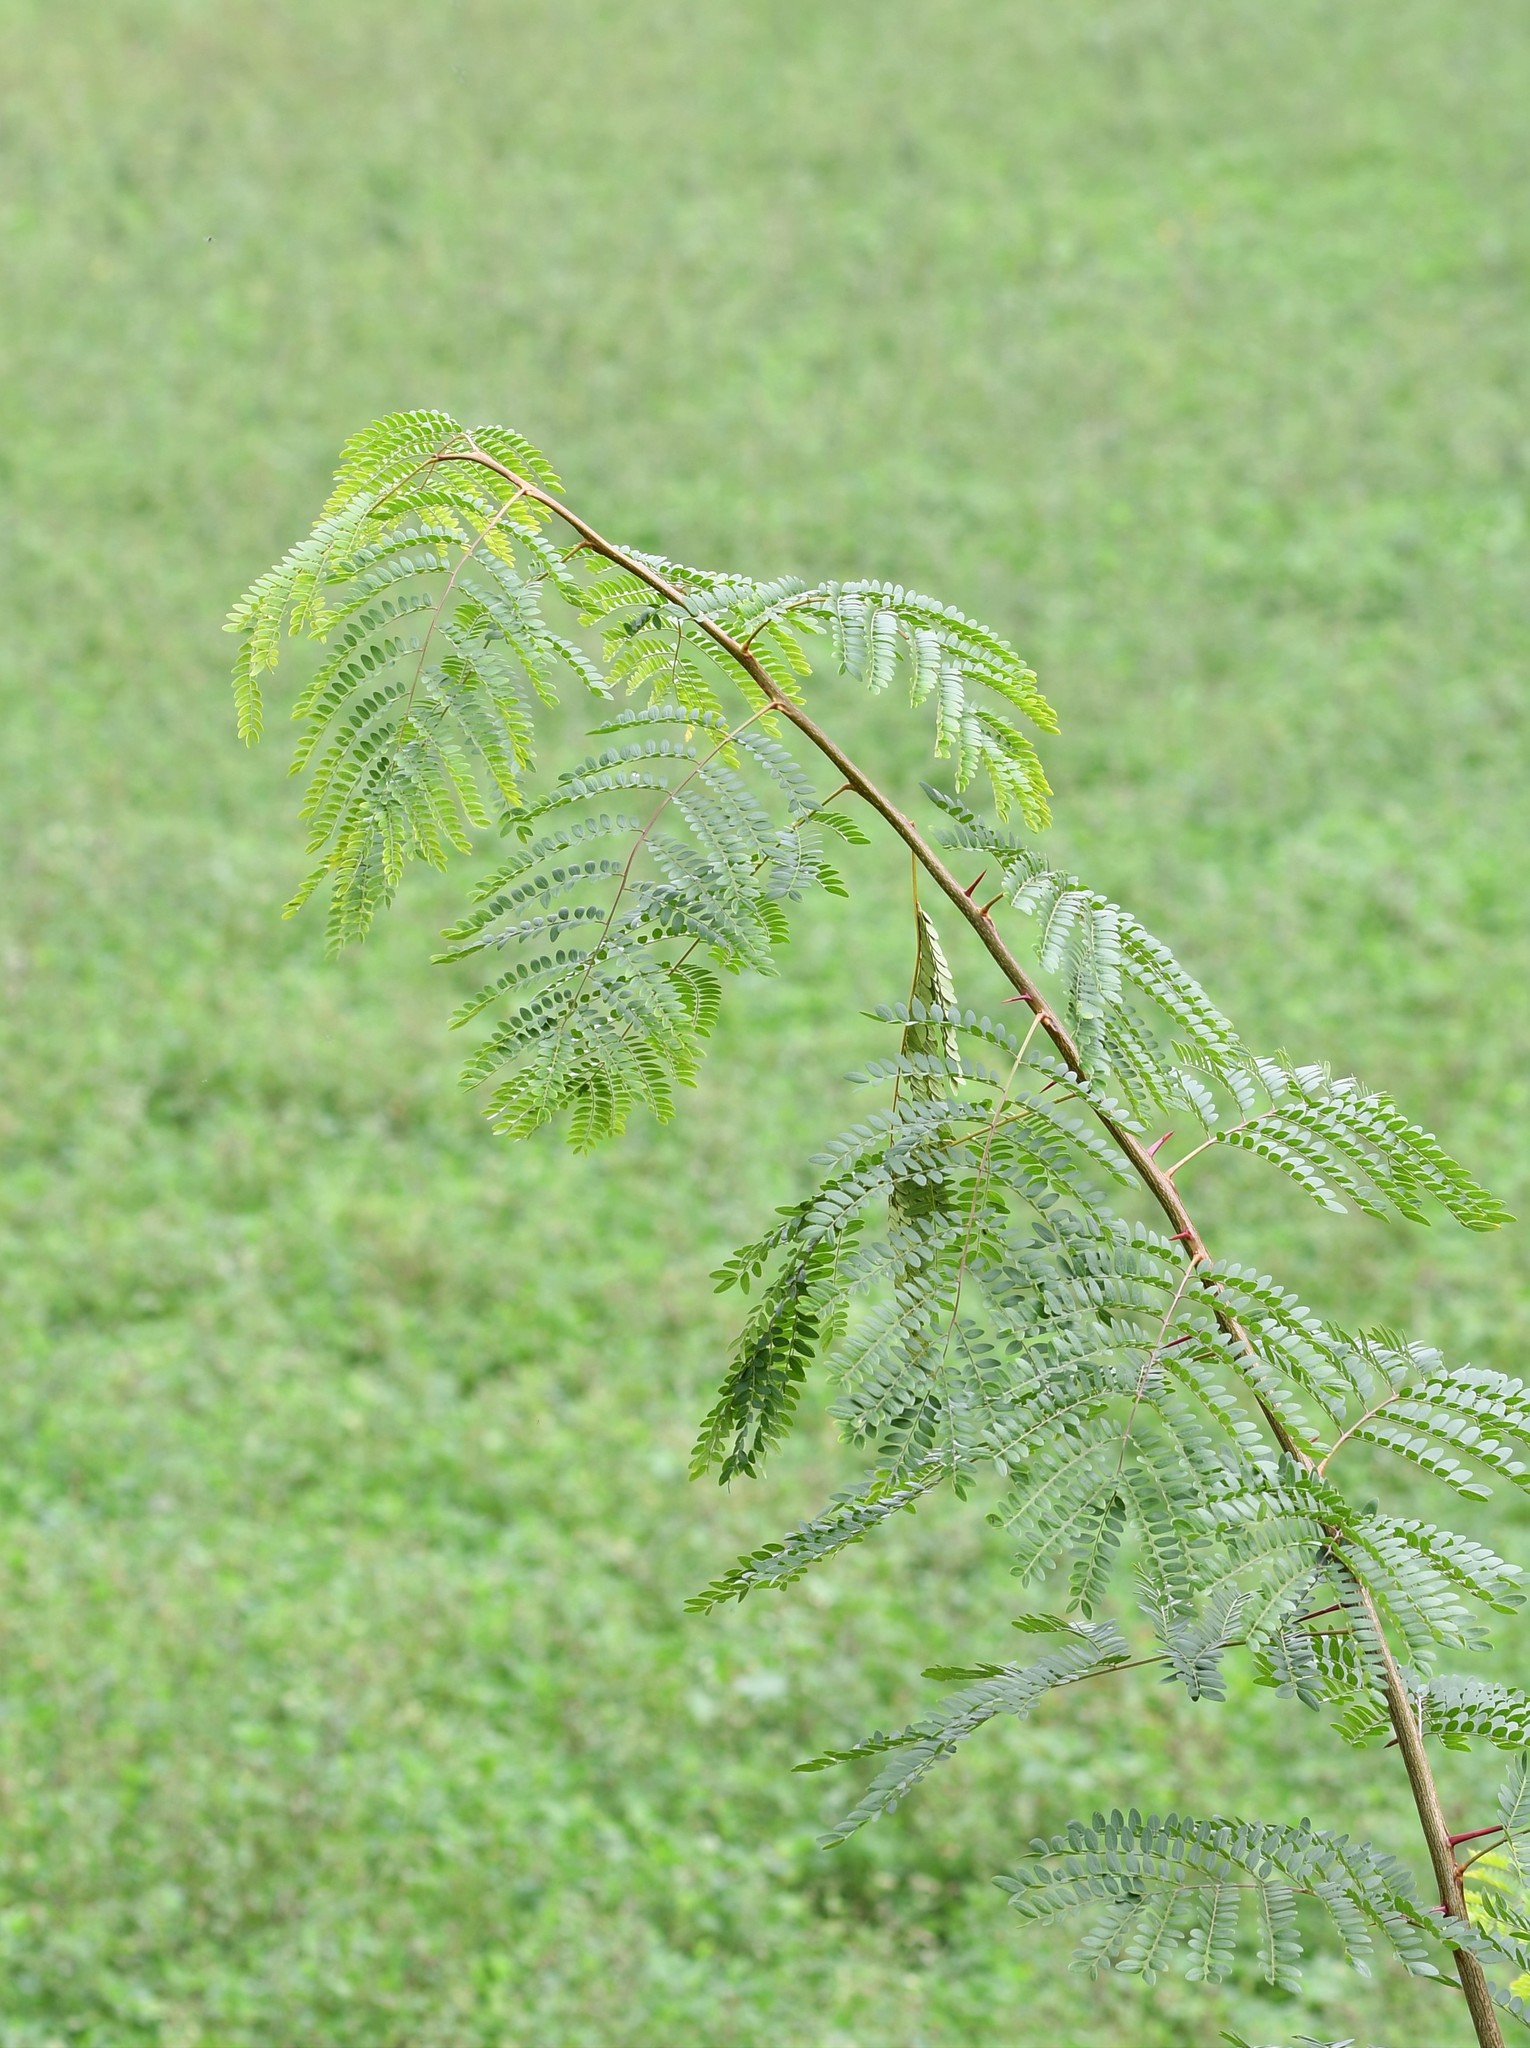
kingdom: Plantae
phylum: Tracheophyta
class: Magnoliopsida
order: Fabales
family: Fabaceae
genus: Gleditsia
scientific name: Gleditsia triacanthos
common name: Common honeylocust
